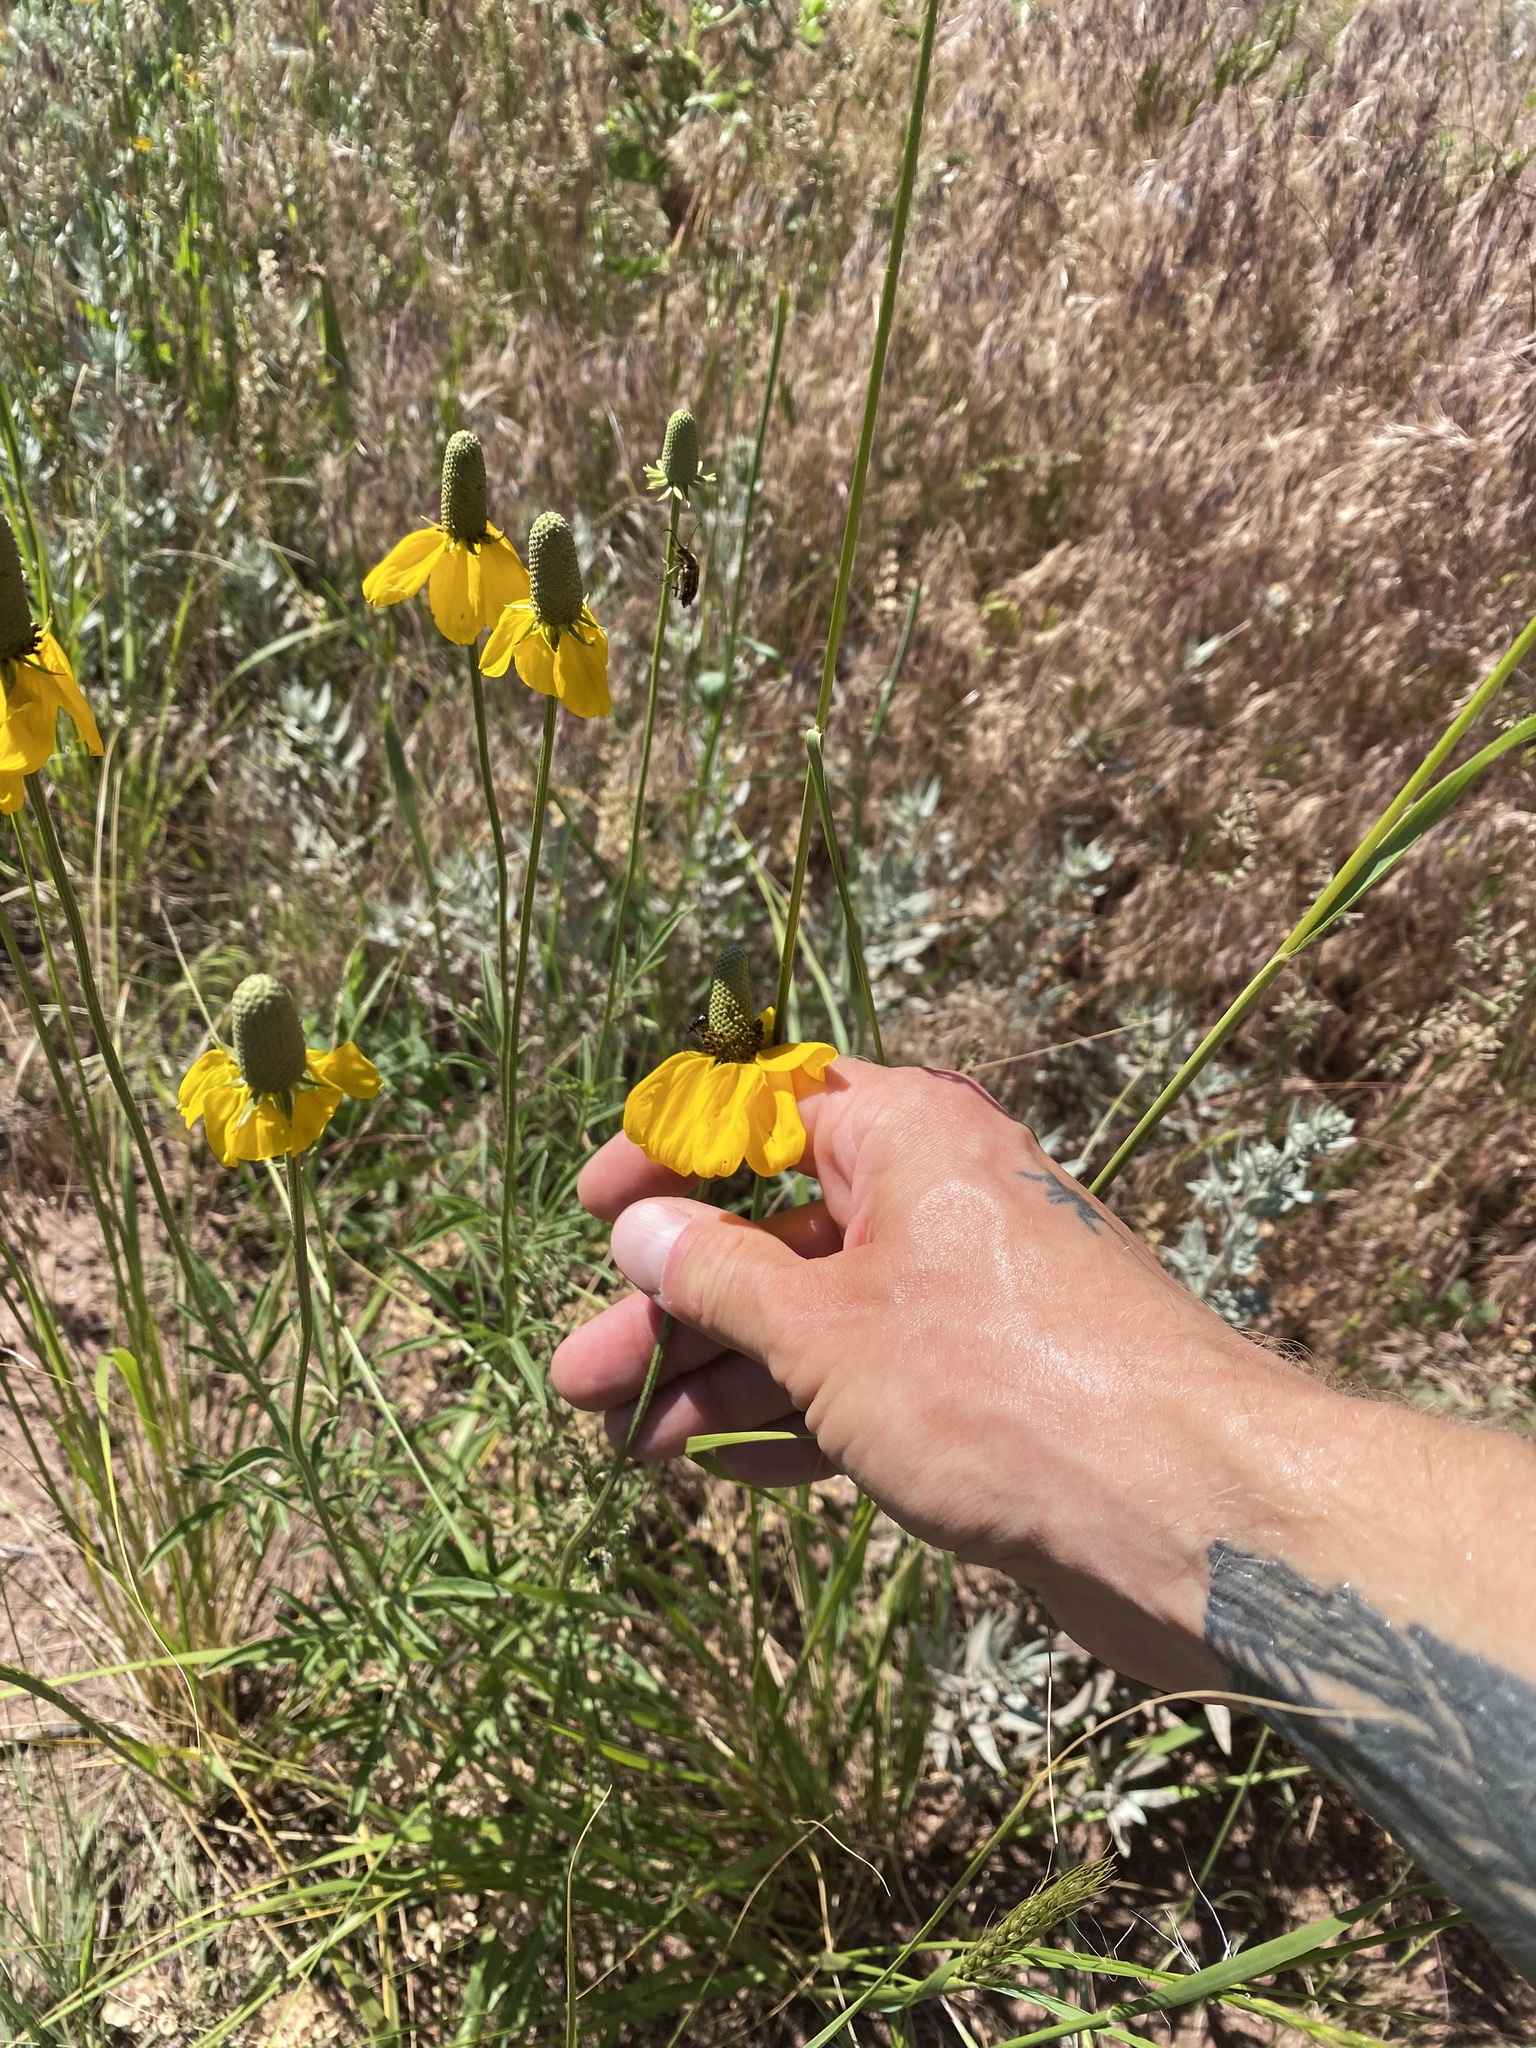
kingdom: Plantae
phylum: Tracheophyta
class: Magnoliopsida
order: Asterales
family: Asteraceae
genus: Ratibida
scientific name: Ratibida columnifera
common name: Prairie coneflower
